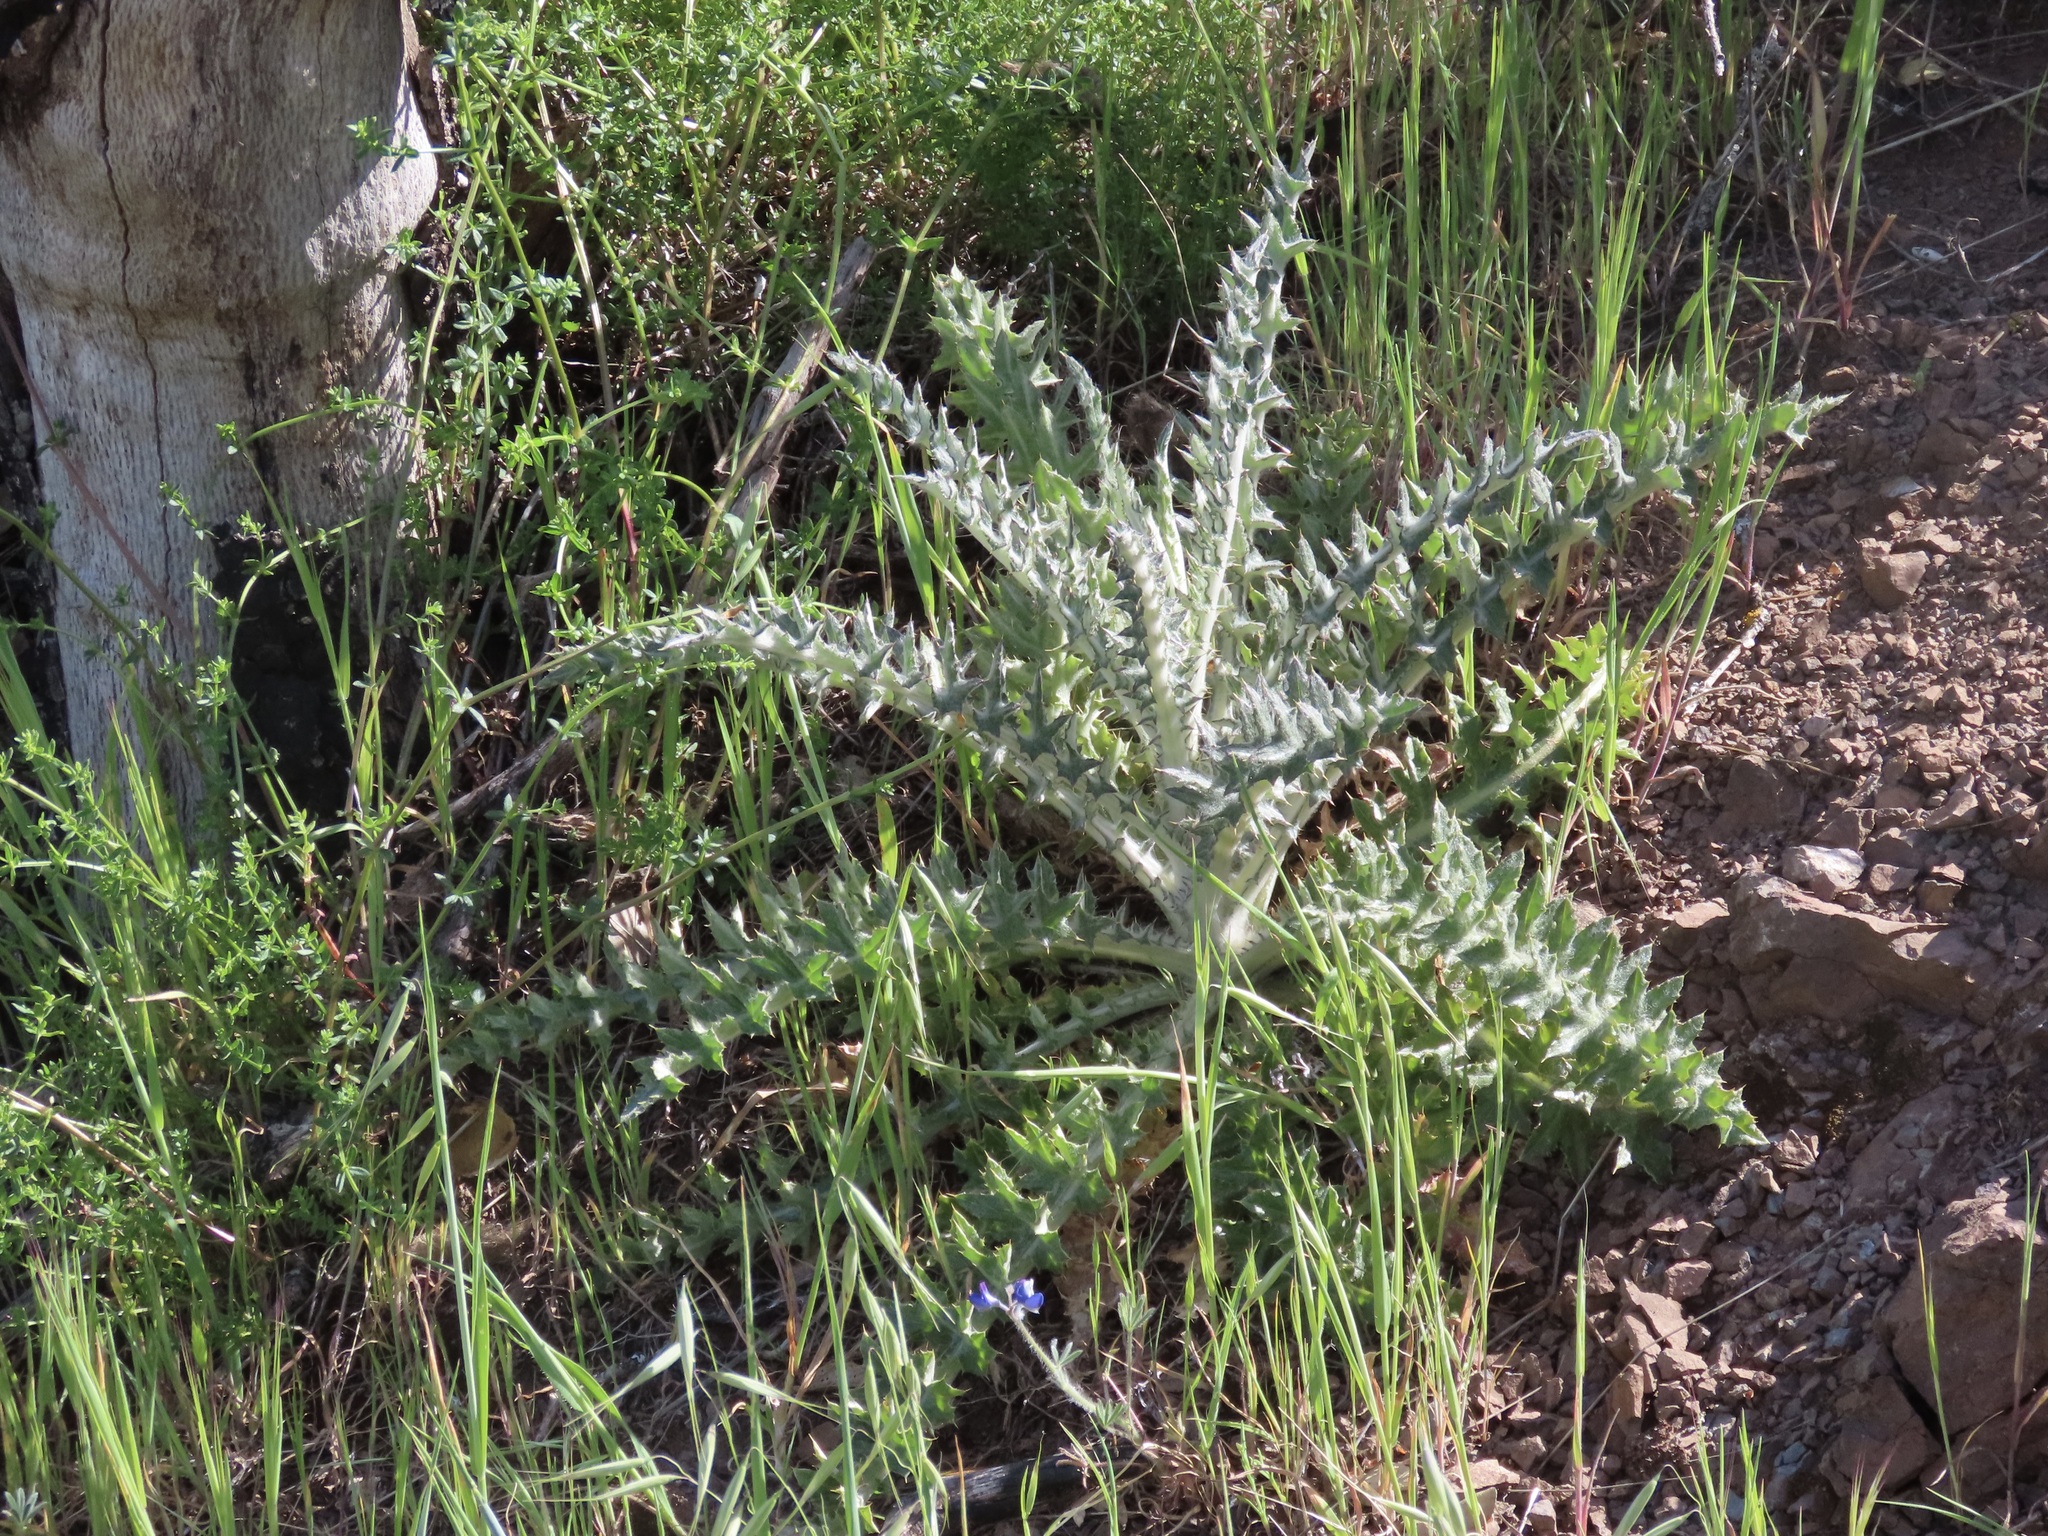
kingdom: Plantae
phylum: Tracheophyta
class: Magnoliopsida
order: Asterales
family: Asteraceae
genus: Cirsium
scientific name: Cirsium occidentale
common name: Western thistle
